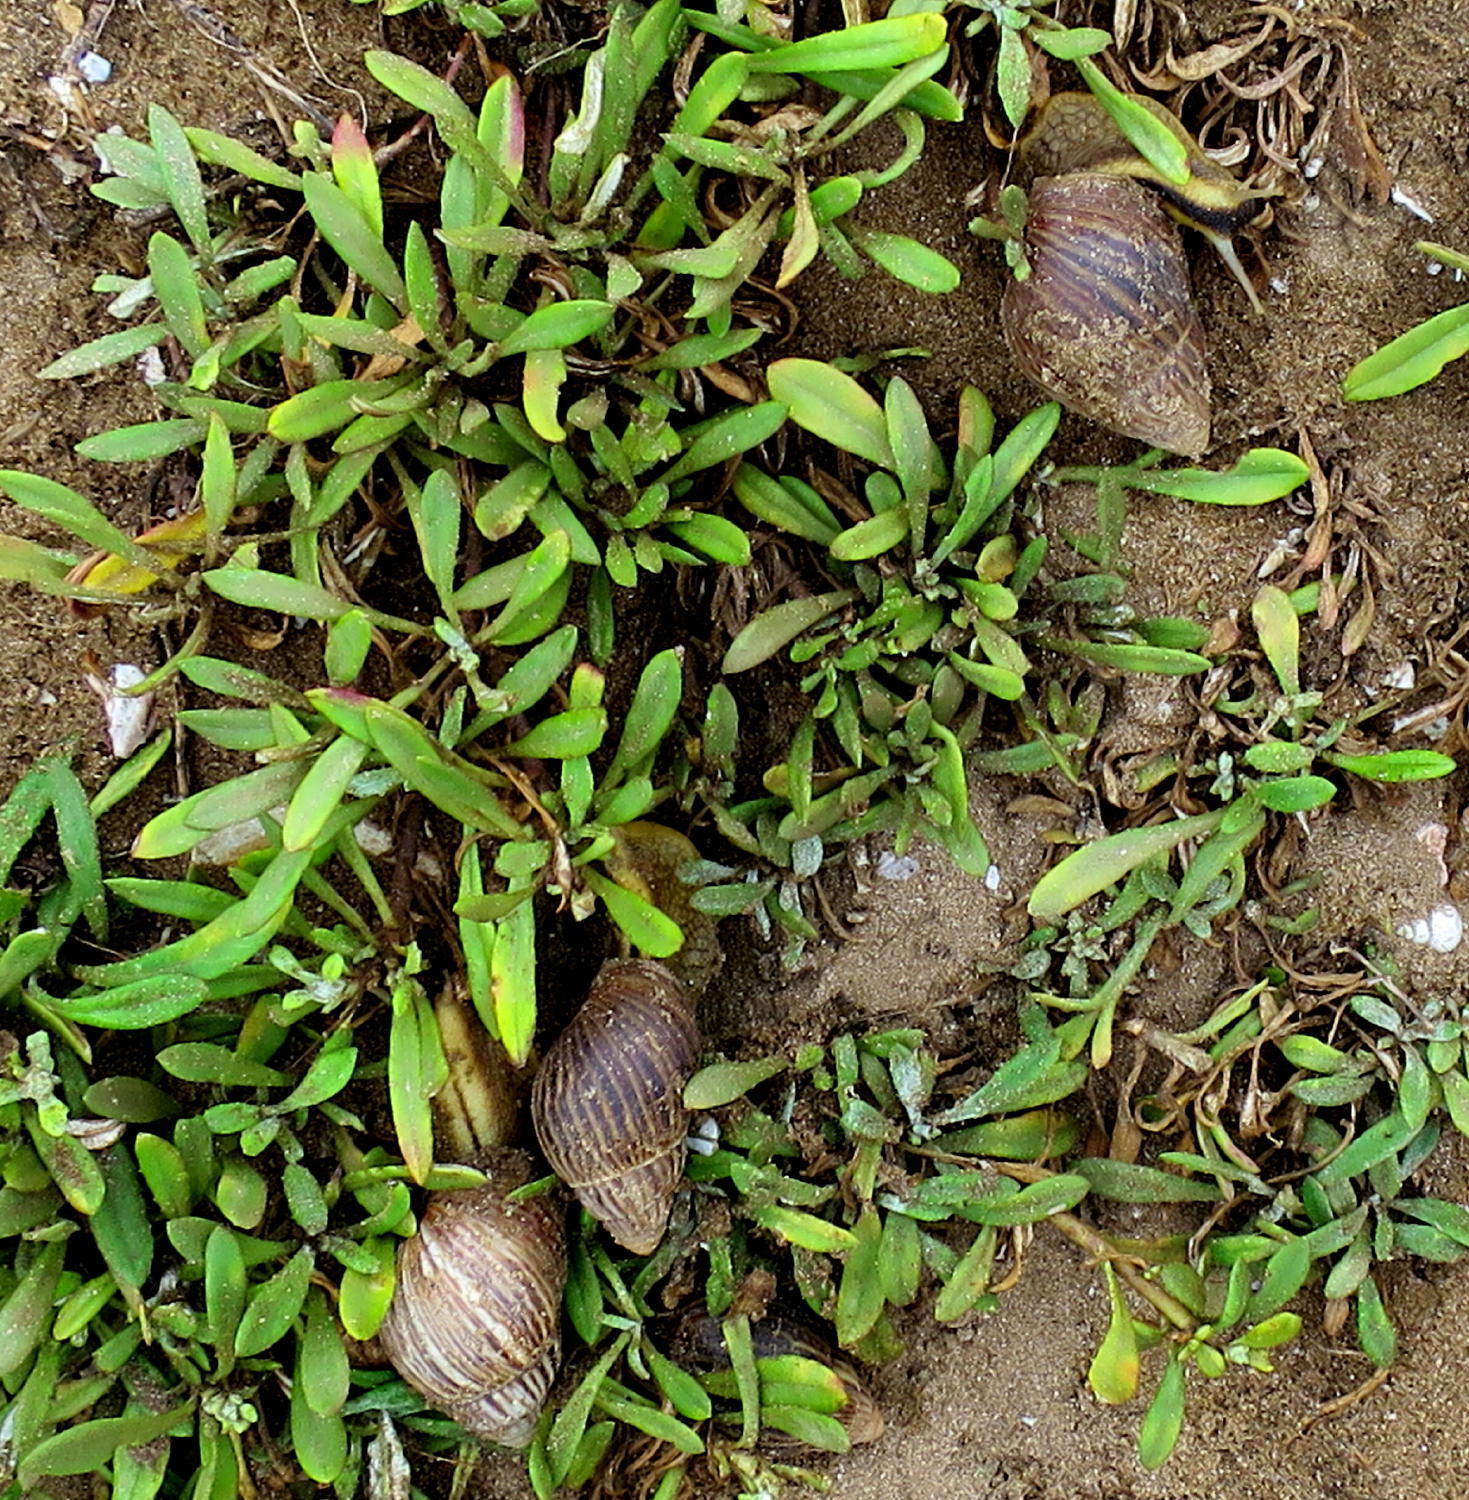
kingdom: Animalia
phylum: Mollusca
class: Gastropoda
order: Stylommatophora
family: Achatinidae
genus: Cochlitoma
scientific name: Cochlitoma zebra
